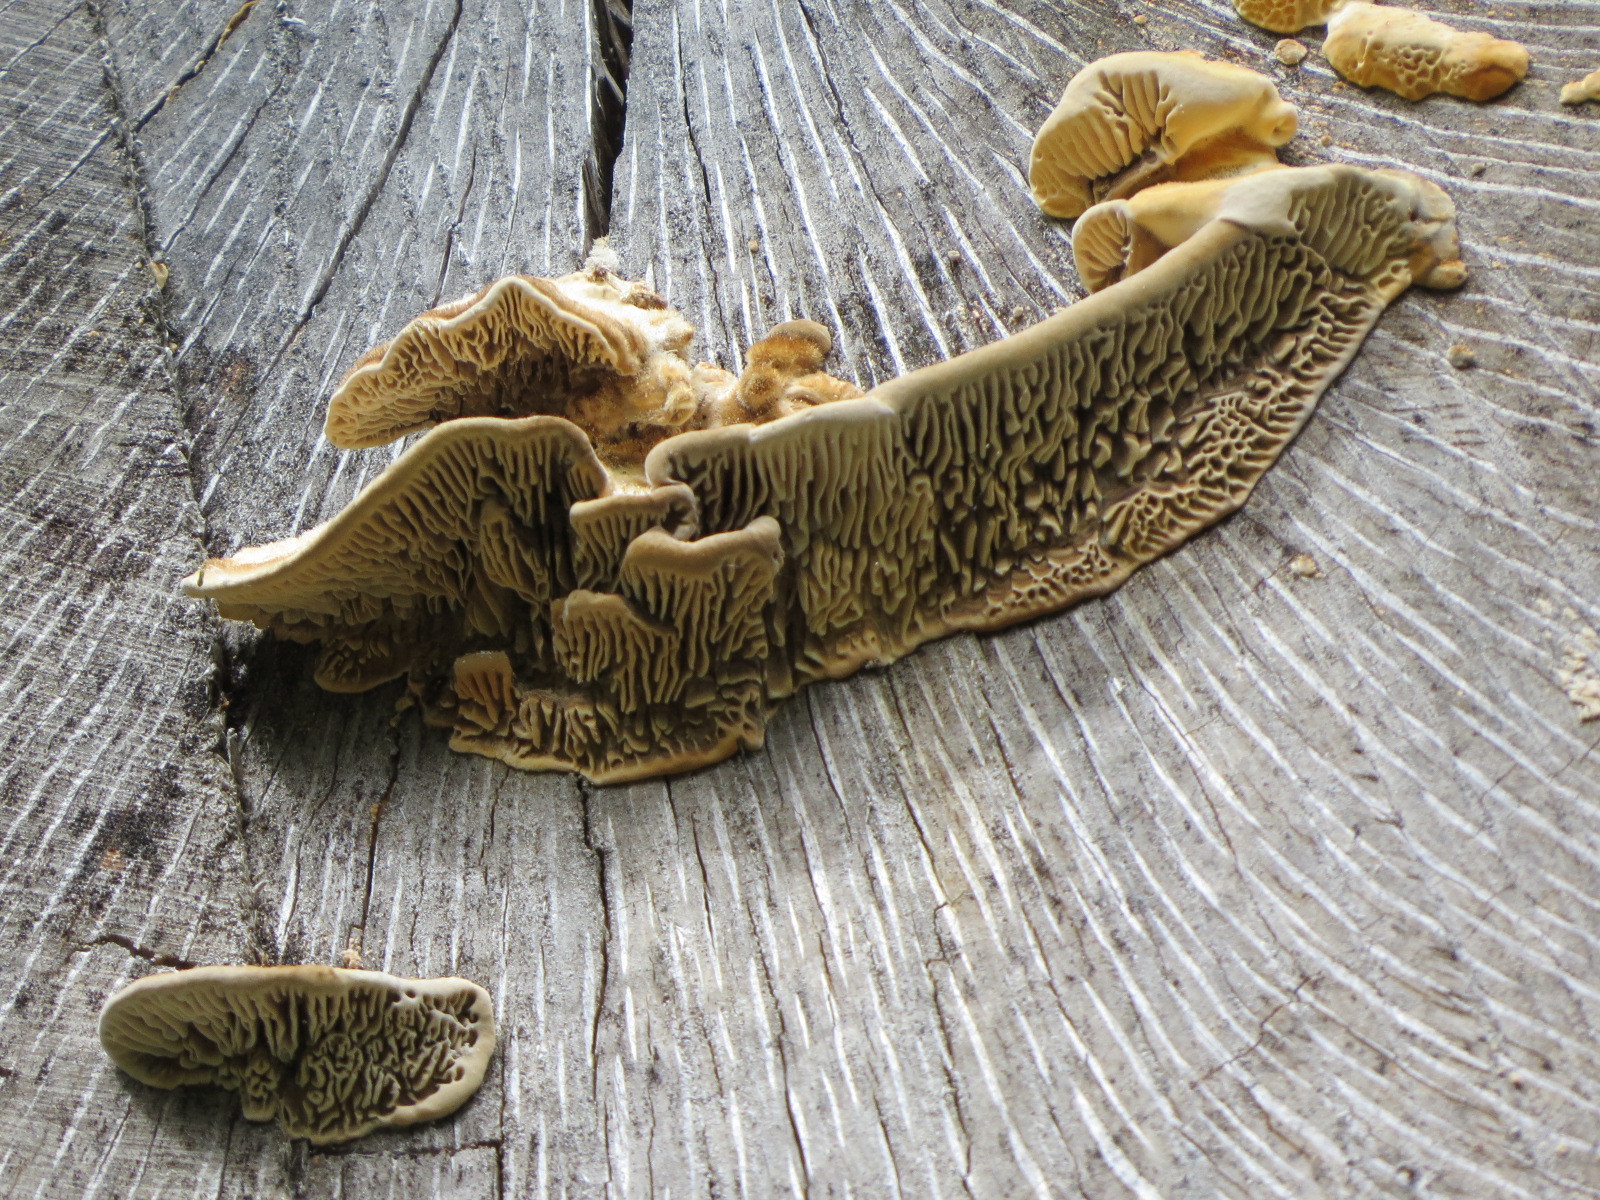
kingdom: Fungi
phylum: Basidiomycota
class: Agaricomycetes
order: Polyporales
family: Polyporaceae
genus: Lenzites
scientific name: Lenzites betulinus
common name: Birch mazegill
